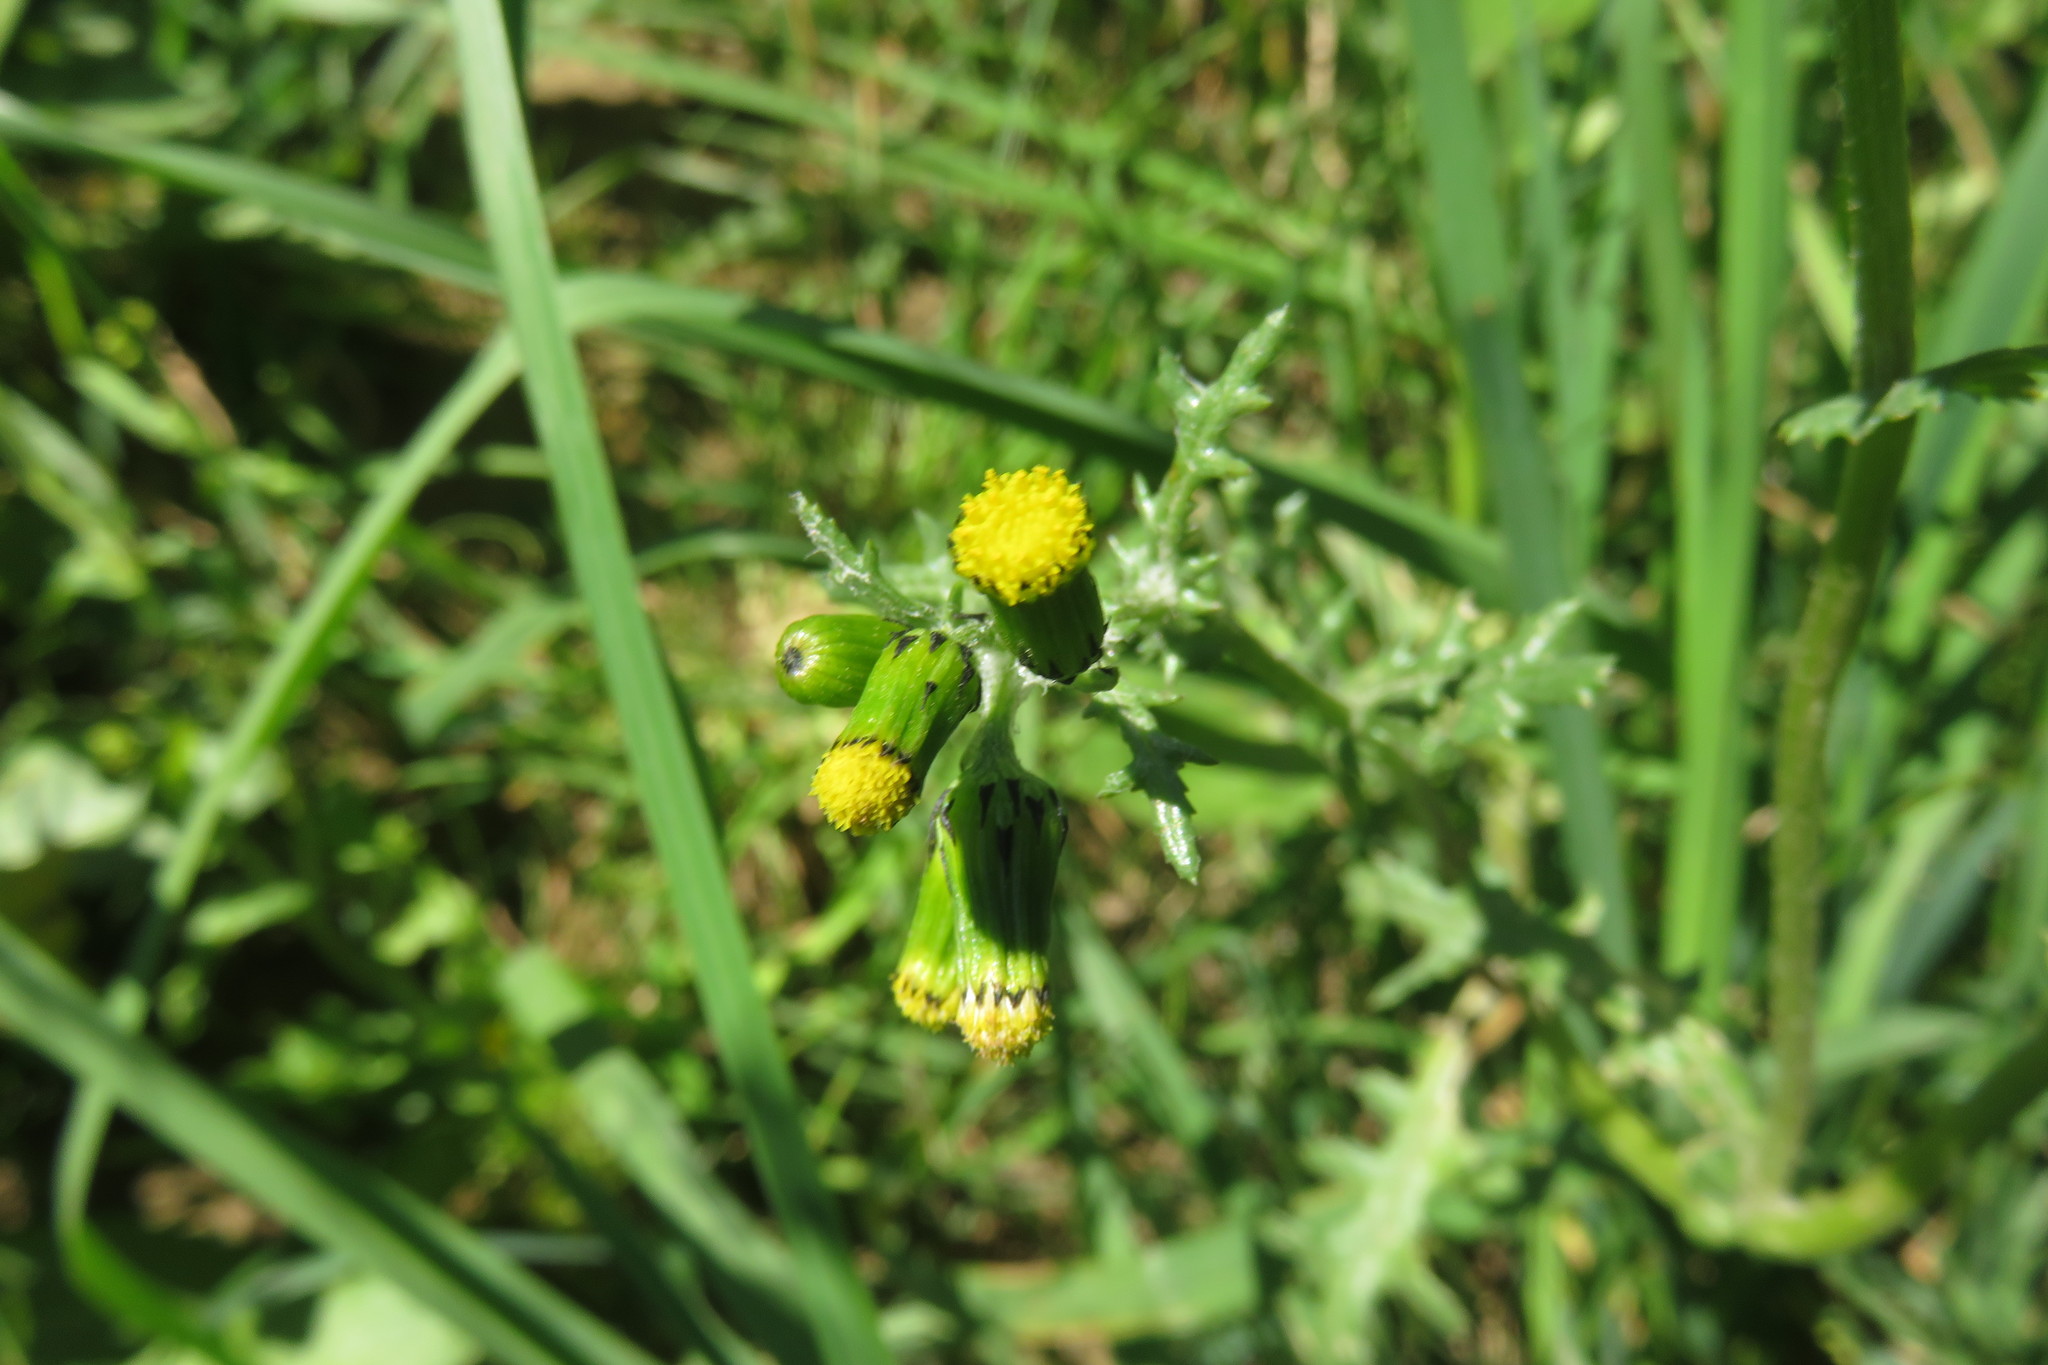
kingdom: Plantae
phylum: Tracheophyta
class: Magnoliopsida
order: Asterales
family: Asteraceae
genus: Senecio
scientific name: Senecio vulgaris
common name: Old-man-in-the-spring
